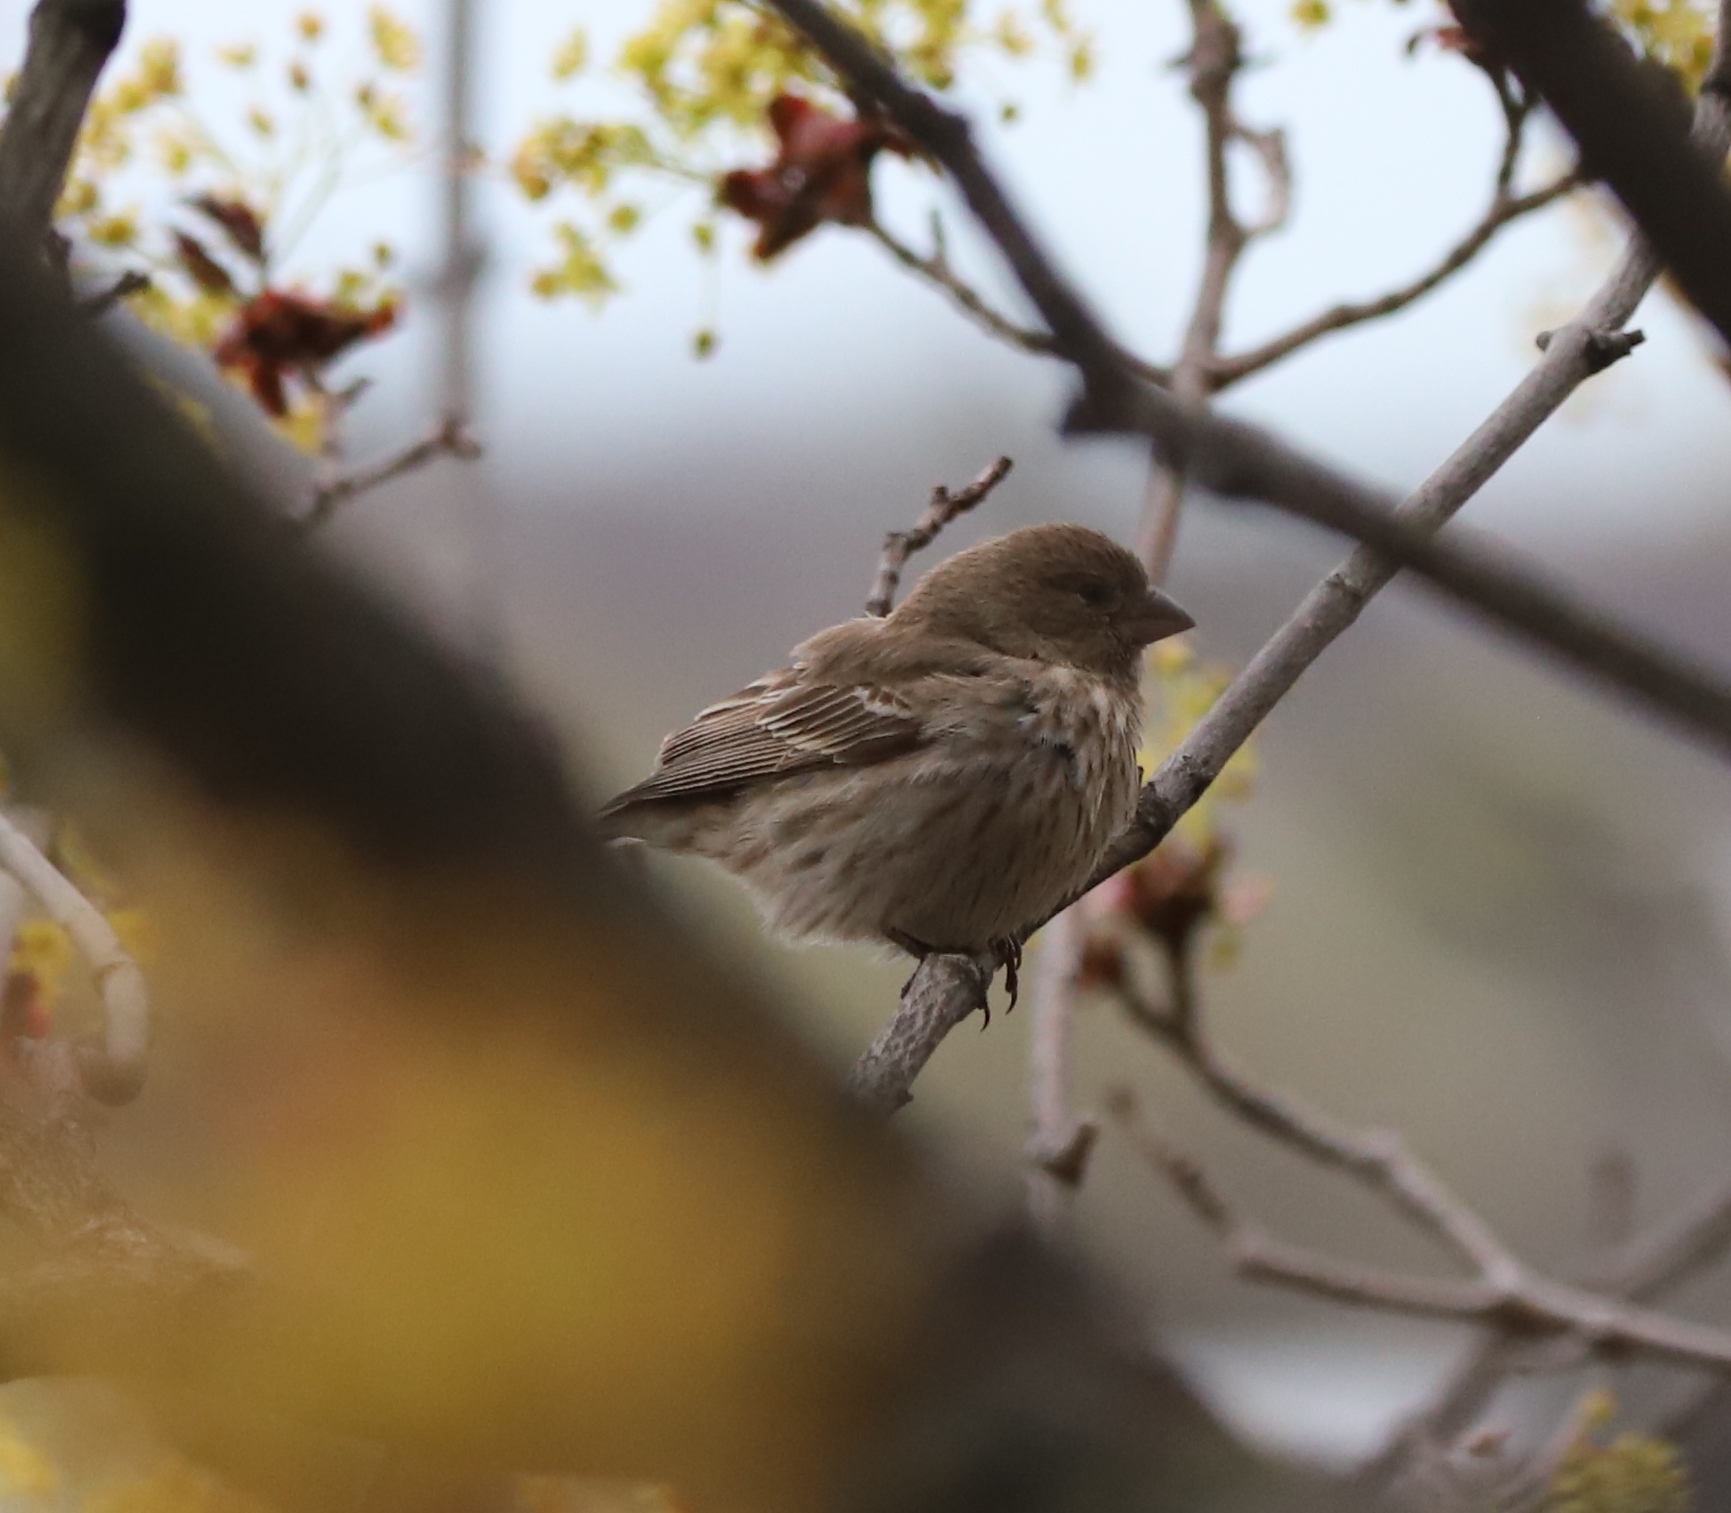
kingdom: Animalia
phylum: Chordata
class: Aves
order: Passeriformes
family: Fringillidae
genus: Haemorhous
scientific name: Haemorhous mexicanus
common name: House finch
